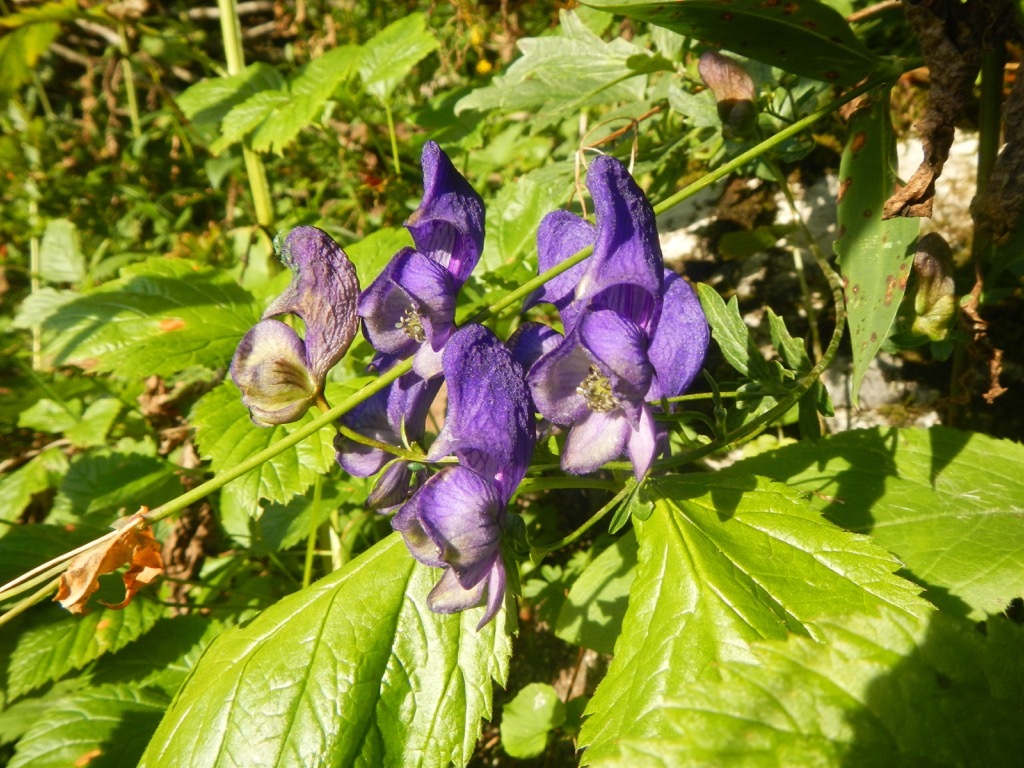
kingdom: Plantae
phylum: Tracheophyta
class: Magnoliopsida
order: Ranunculales
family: Ranunculaceae
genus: Aconitum
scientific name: Aconitum variegatum
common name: Manchurian monkshood
